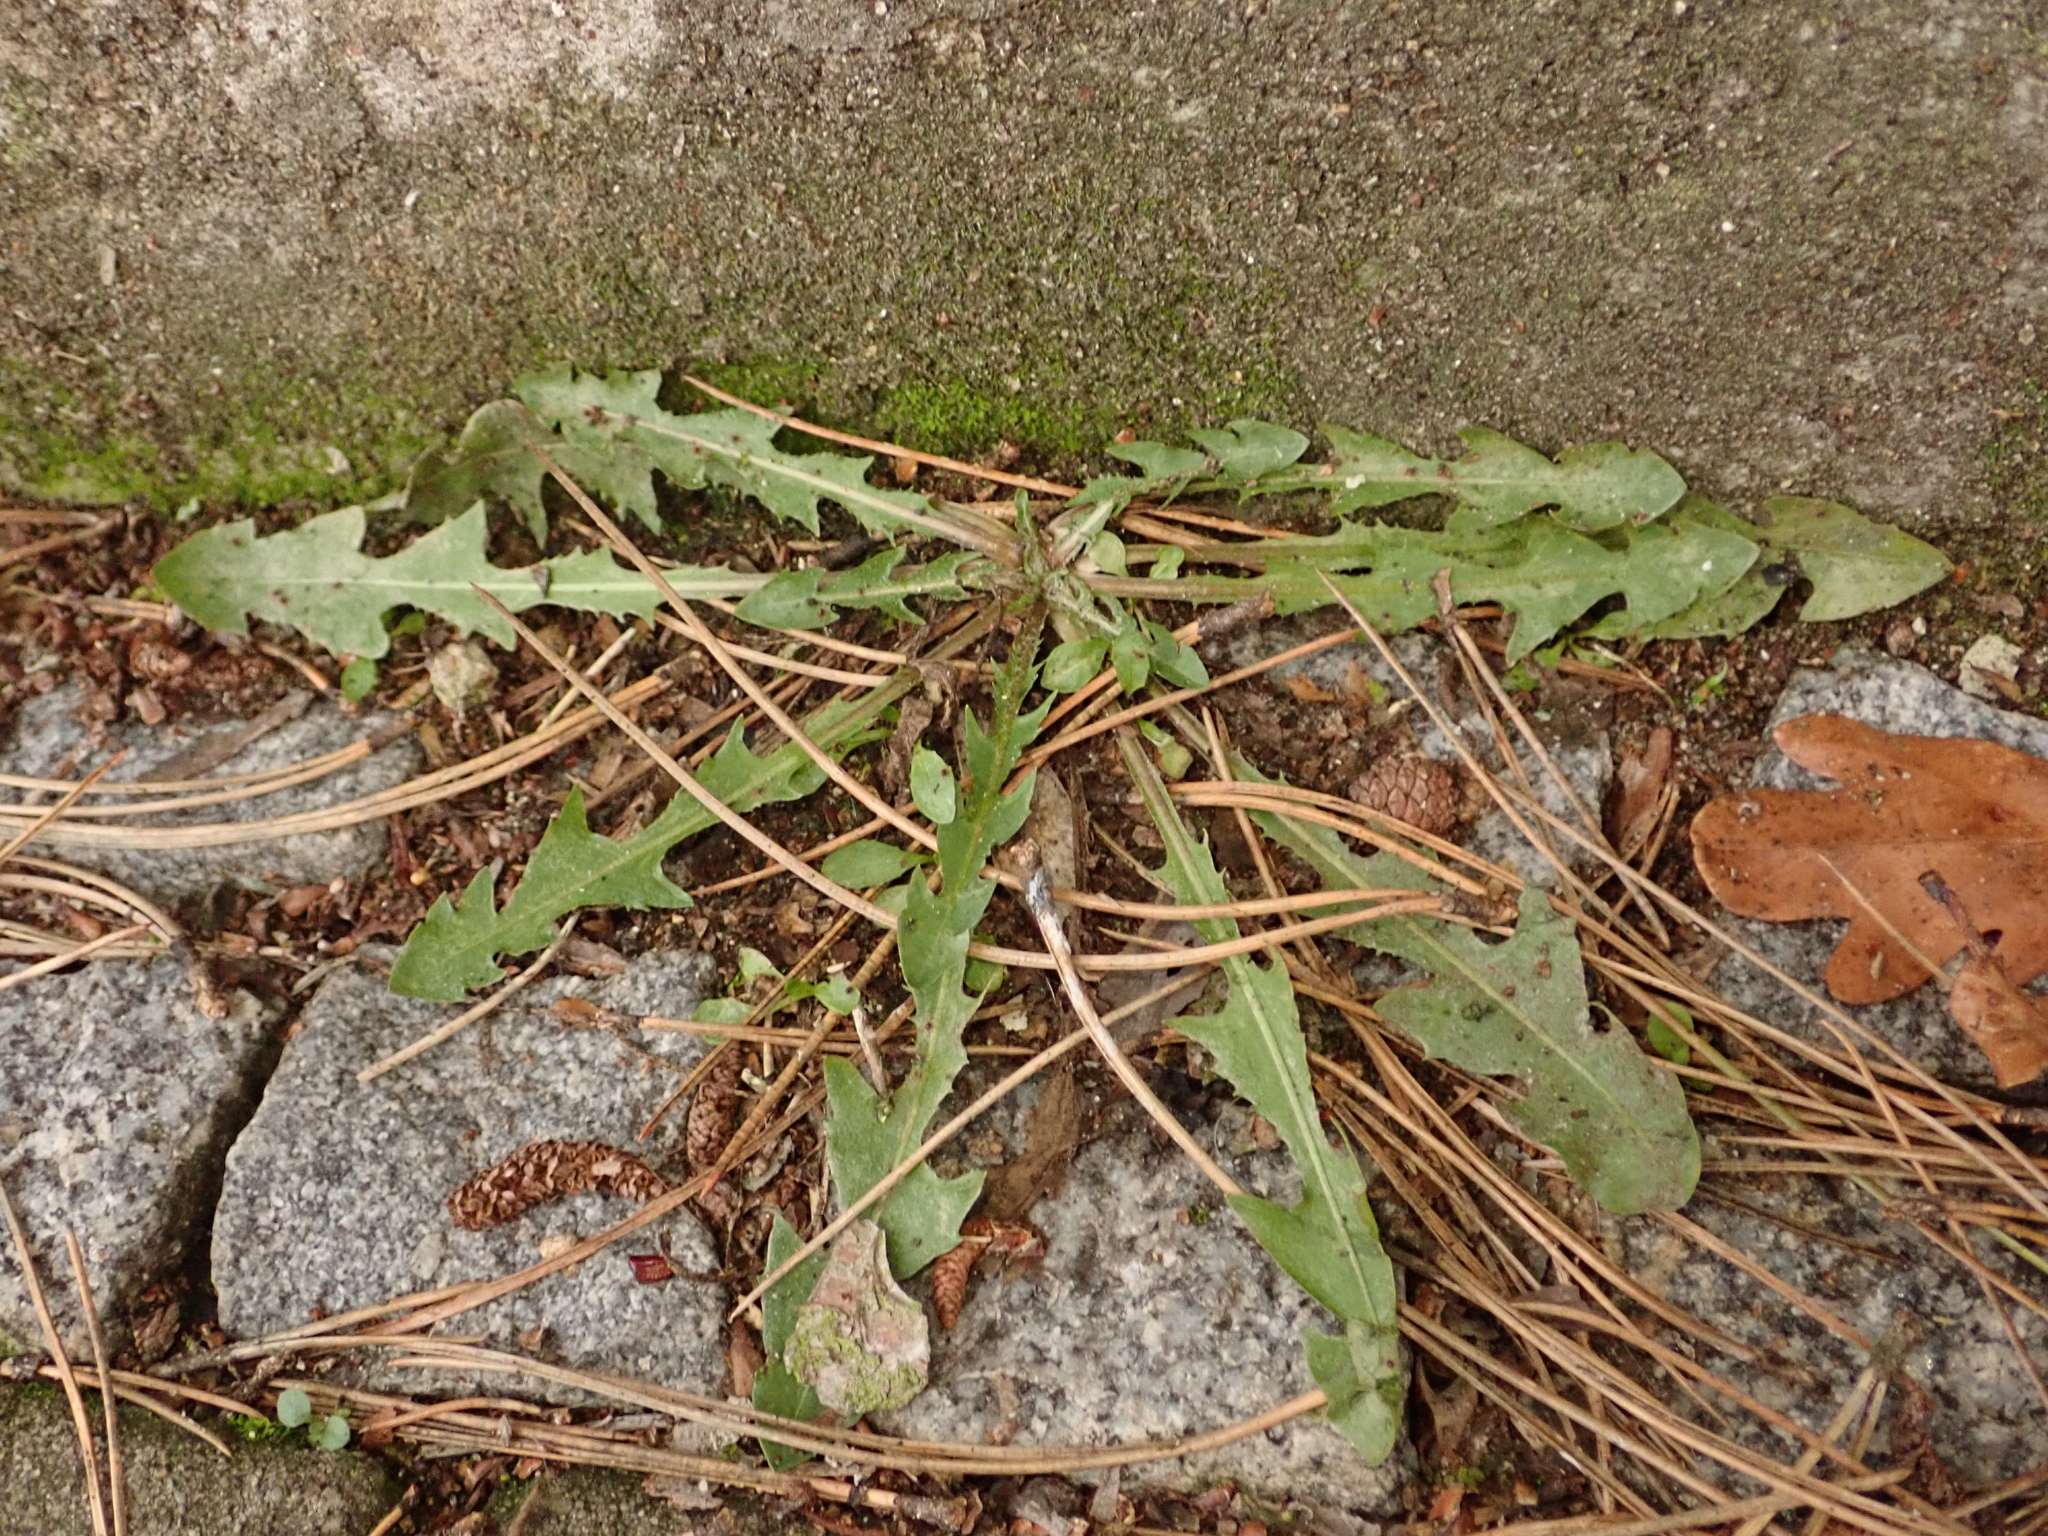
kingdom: Plantae
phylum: Tracheophyta
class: Magnoliopsida
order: Asterales
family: Asteraceae
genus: Taraxacum
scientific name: Taraxacum officinale
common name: Common dandelion
